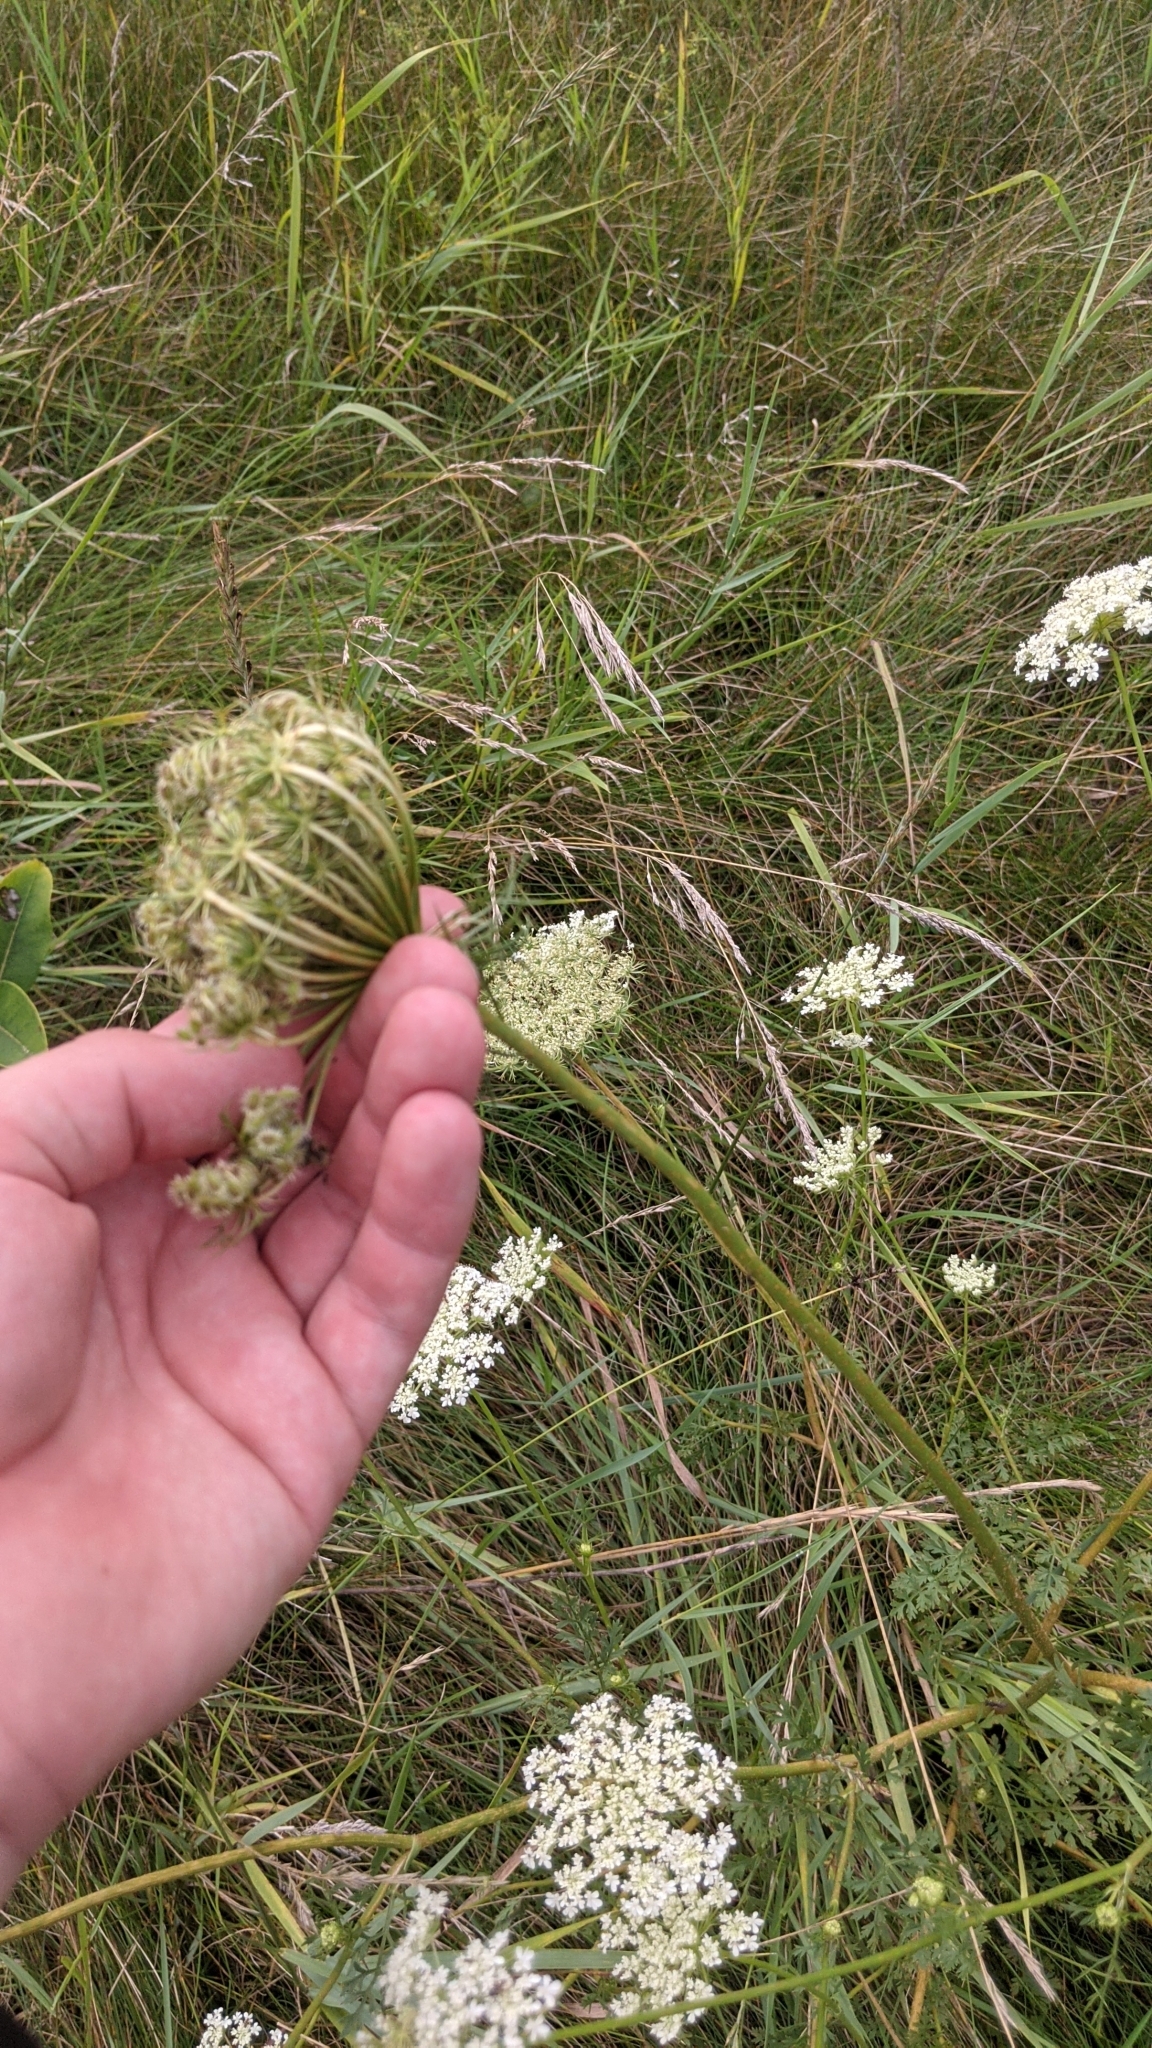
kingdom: Plantae
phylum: Tracheophyta
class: Magnoliopsida
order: Apiales
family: Apiaceae
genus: Daucus
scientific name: Daucus carota
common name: Wild carrot
